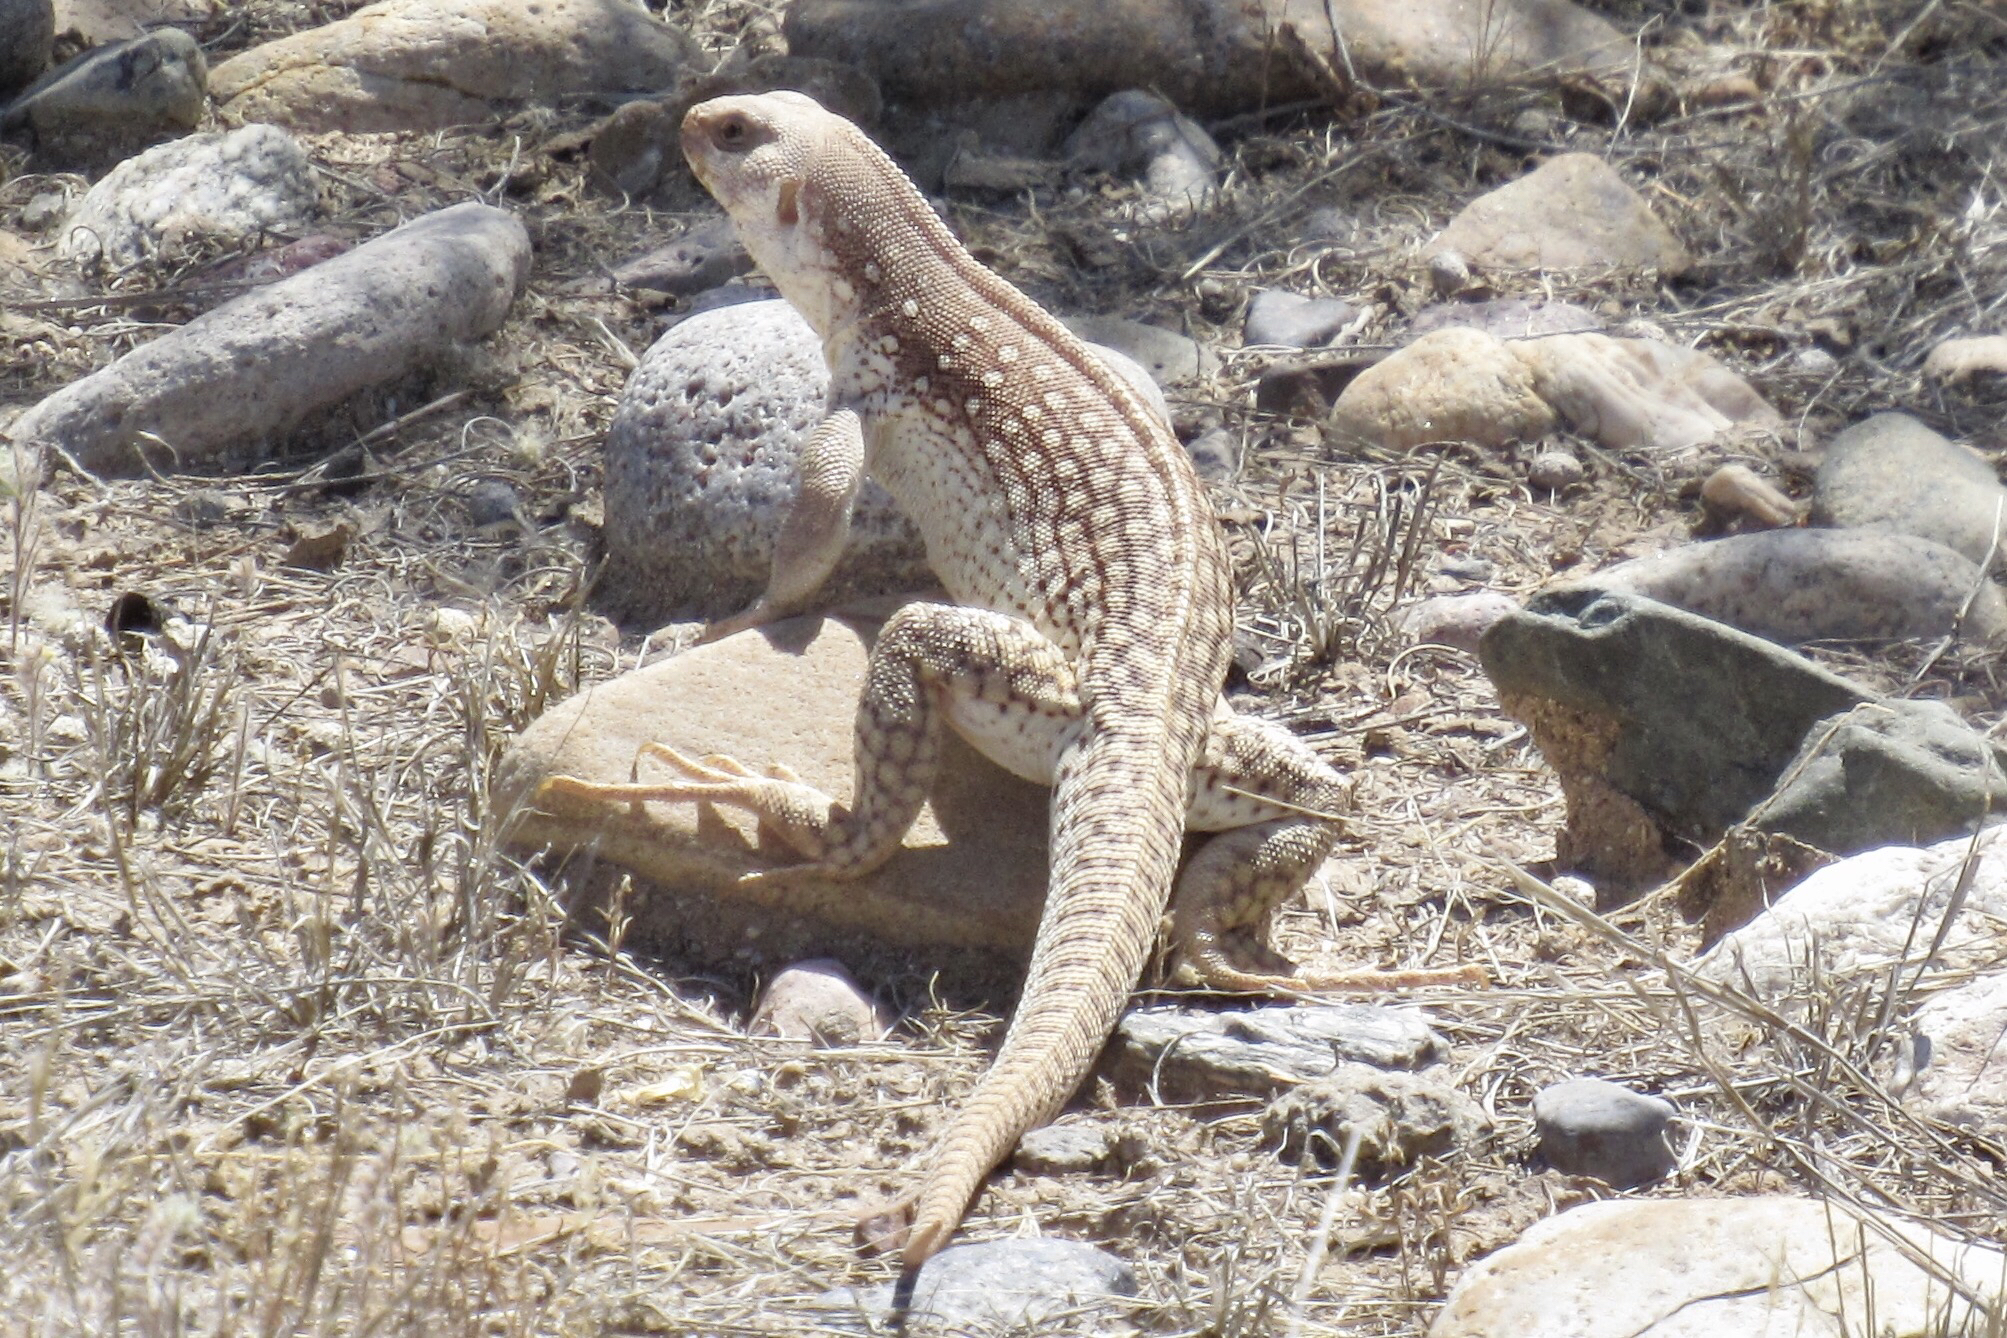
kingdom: Animalia
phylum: Chordata
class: Squamata
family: Iguanidae
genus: Dipsosaurus
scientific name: Dipsosaurus dorsalis
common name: Desert iguana
